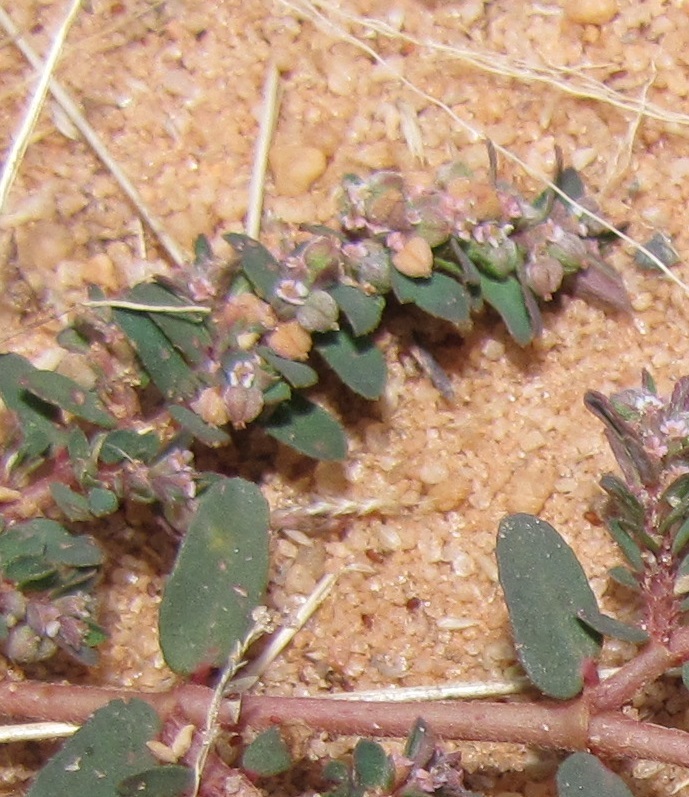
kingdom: Plantae
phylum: Tracheophyta
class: Magnoliopsida
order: Malpighiales
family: Euphorbiaceae
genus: Euphorbia
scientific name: Euphorbia maculata
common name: Spotted spurge
